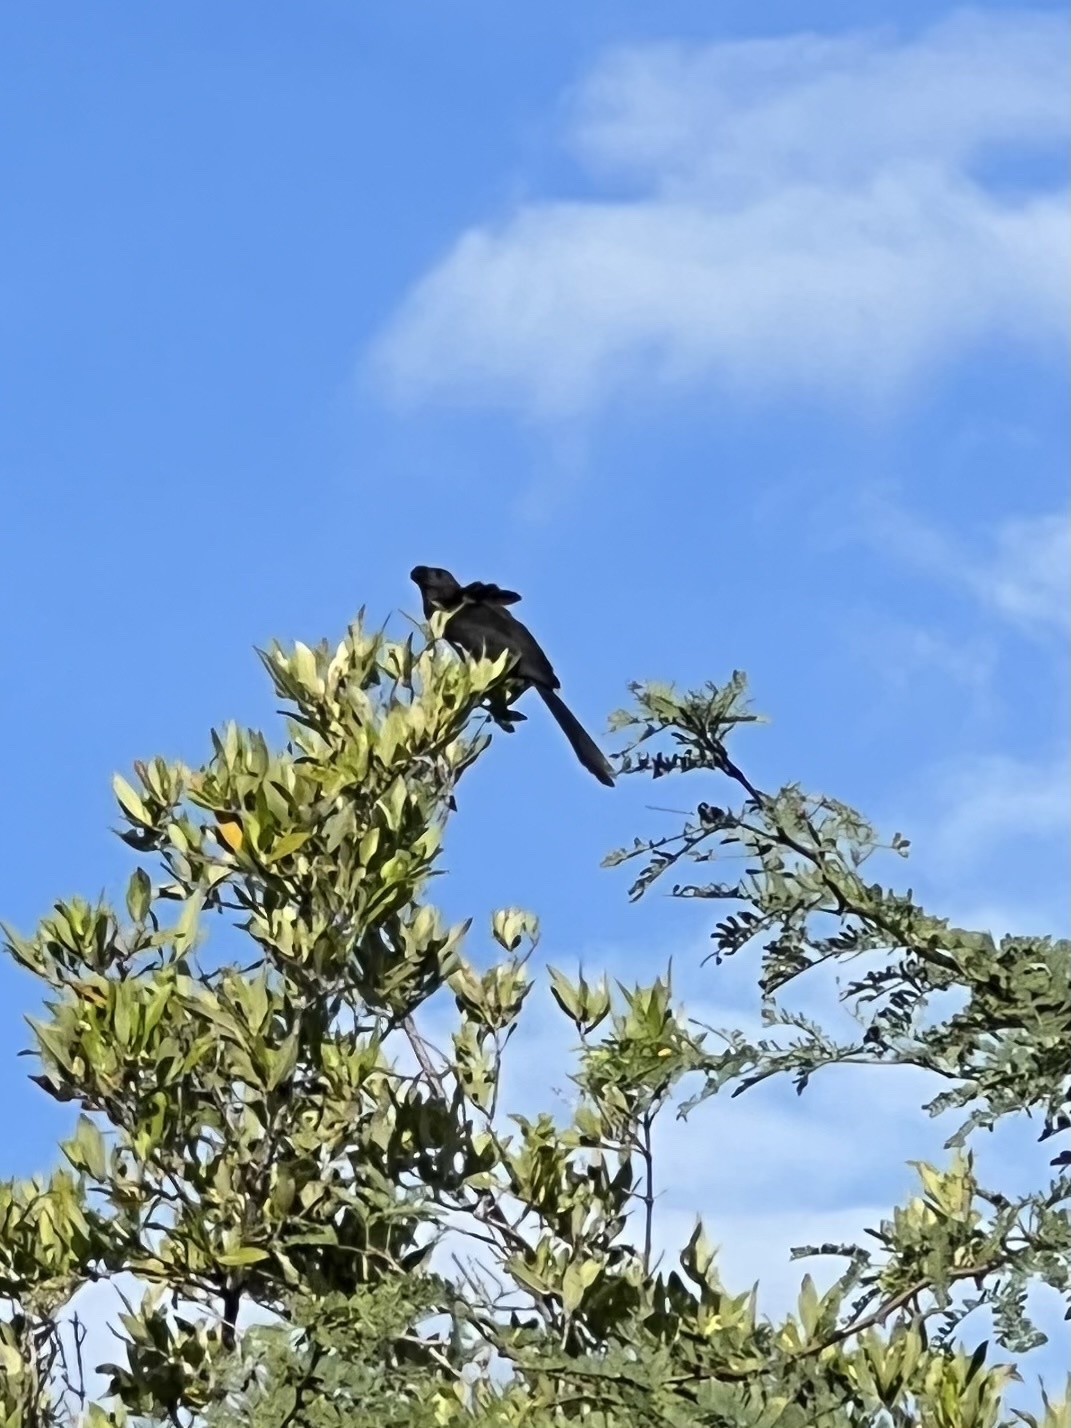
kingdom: Animalia
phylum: Chordata
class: Aves
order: Cuculiformes
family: Cuculidae
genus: Crotophaga
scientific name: Crotophaga ani
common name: Smooth-billed ani
